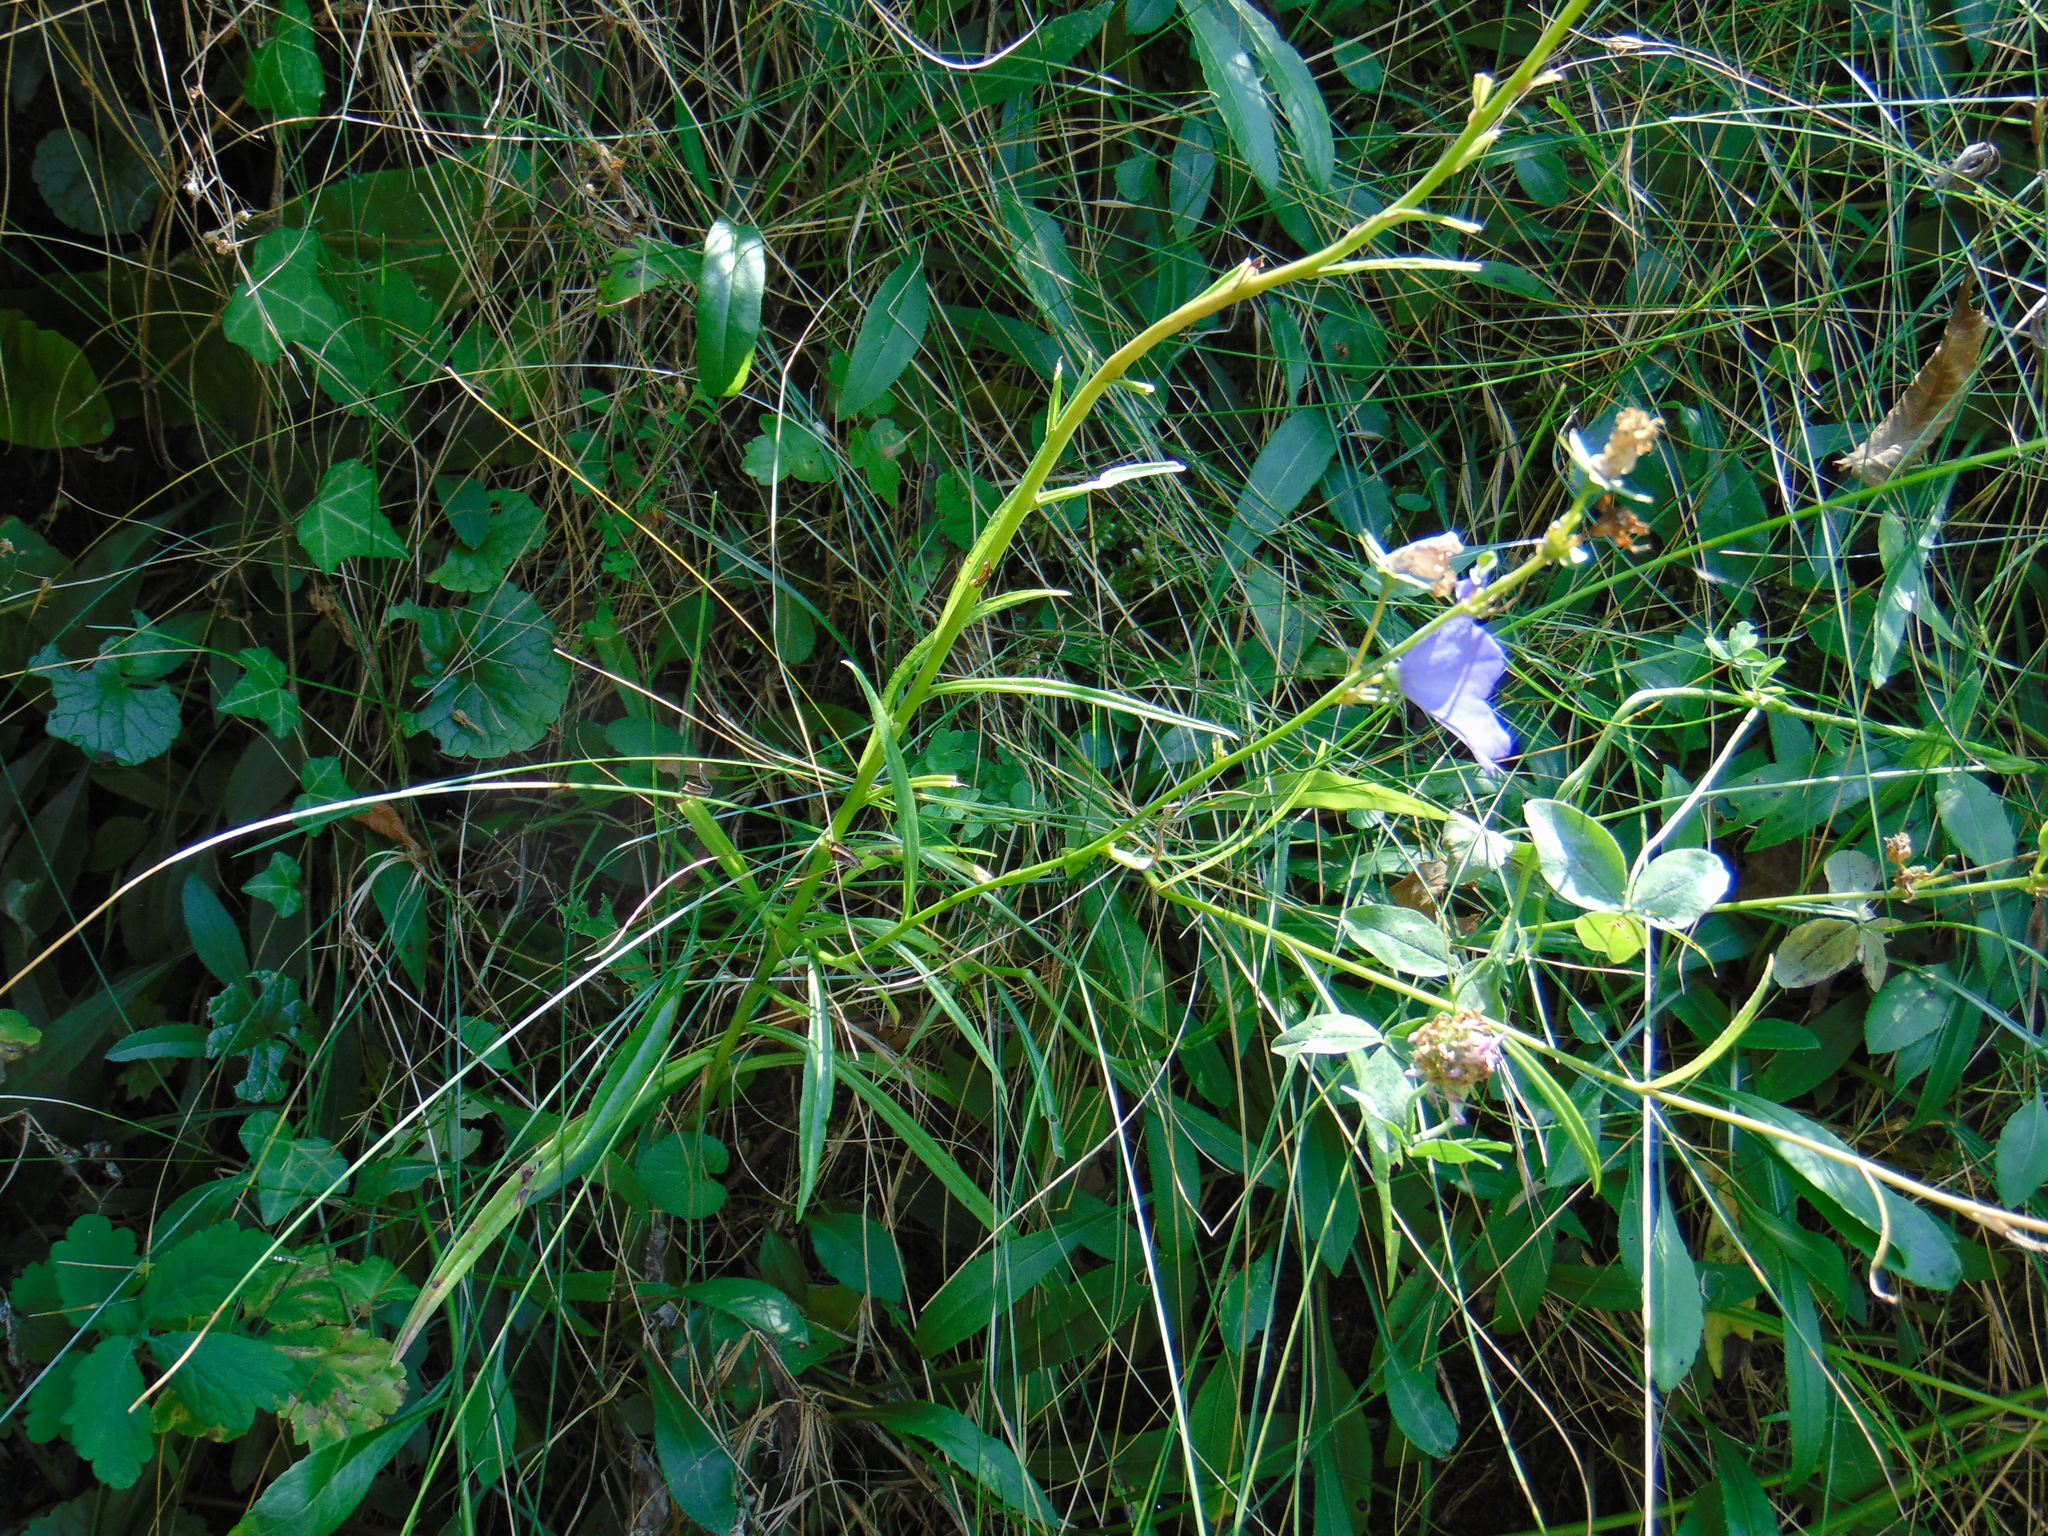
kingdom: Plantae
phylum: Tracheophyta
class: Magnoliopsida
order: Asterales
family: Campanulaceae
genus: Campanula
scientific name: Campanula persicifolia
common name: Peach-leaved bellflower
